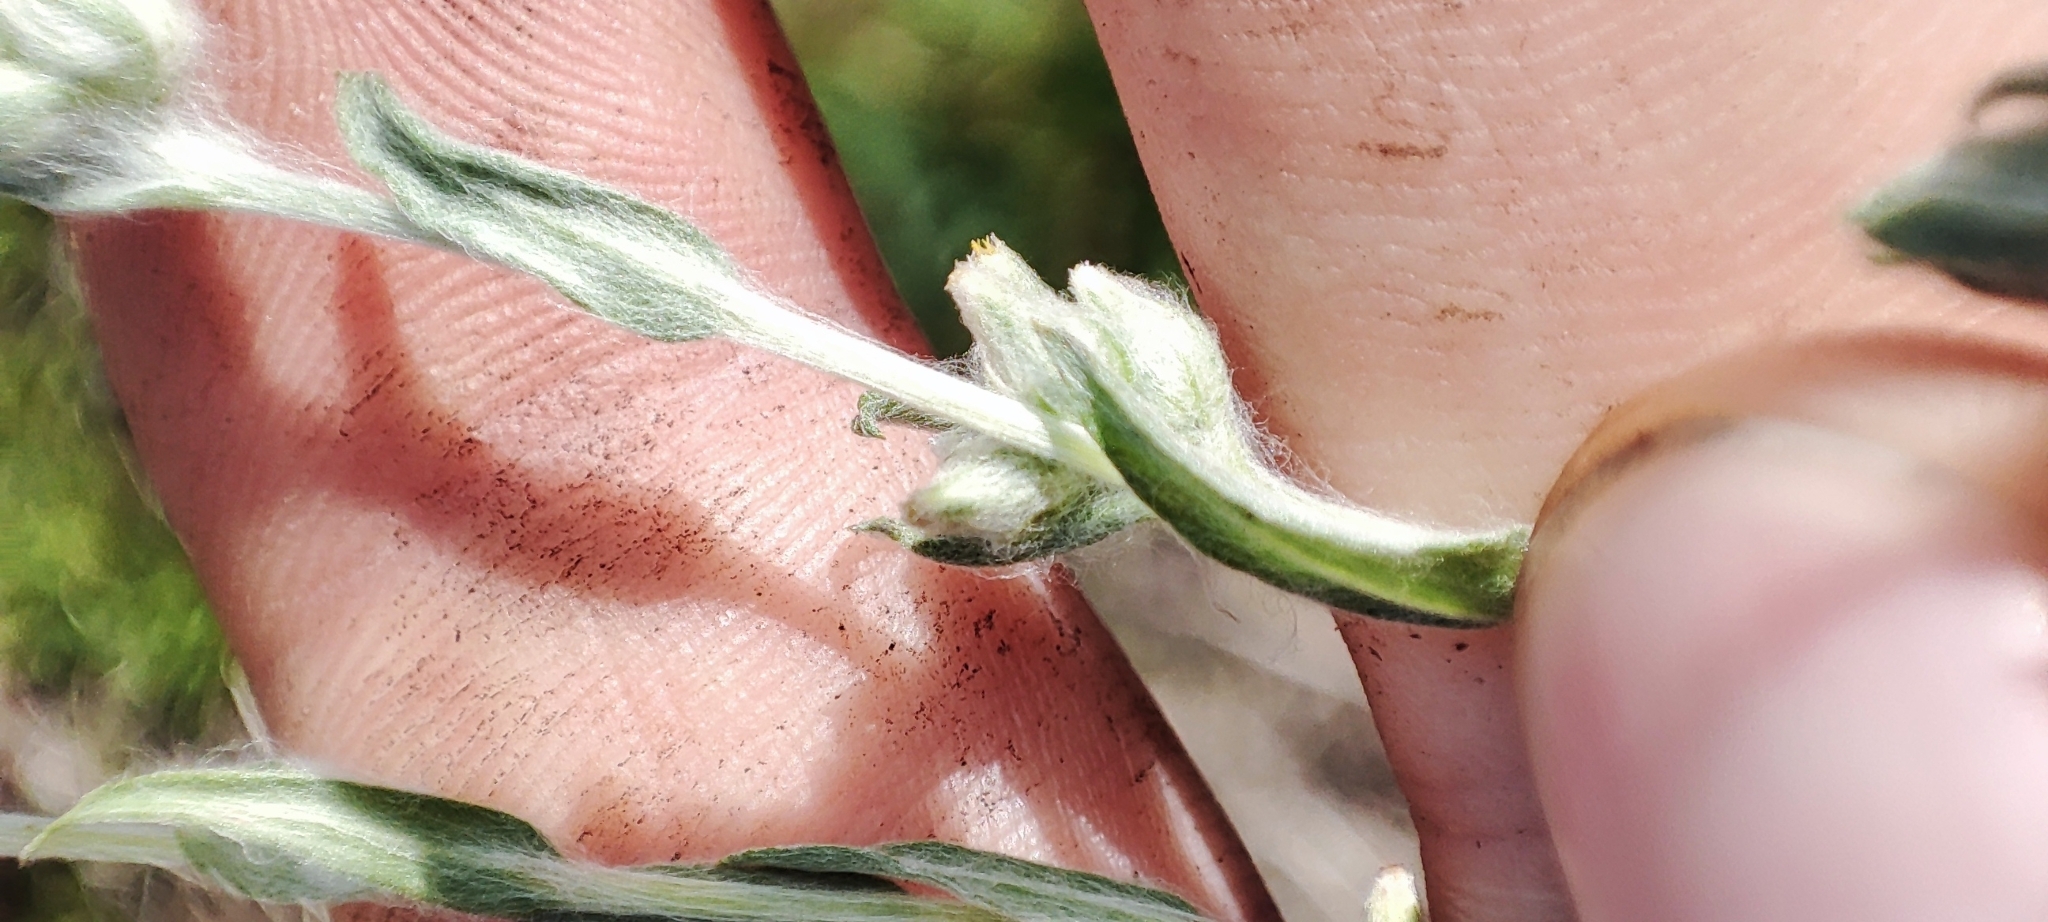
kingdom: Plantae
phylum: Tracheophyta
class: Magnoliopsida
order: Asterales
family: Asteraceae
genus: Filago
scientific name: Filago arvensis
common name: Field cudweed
